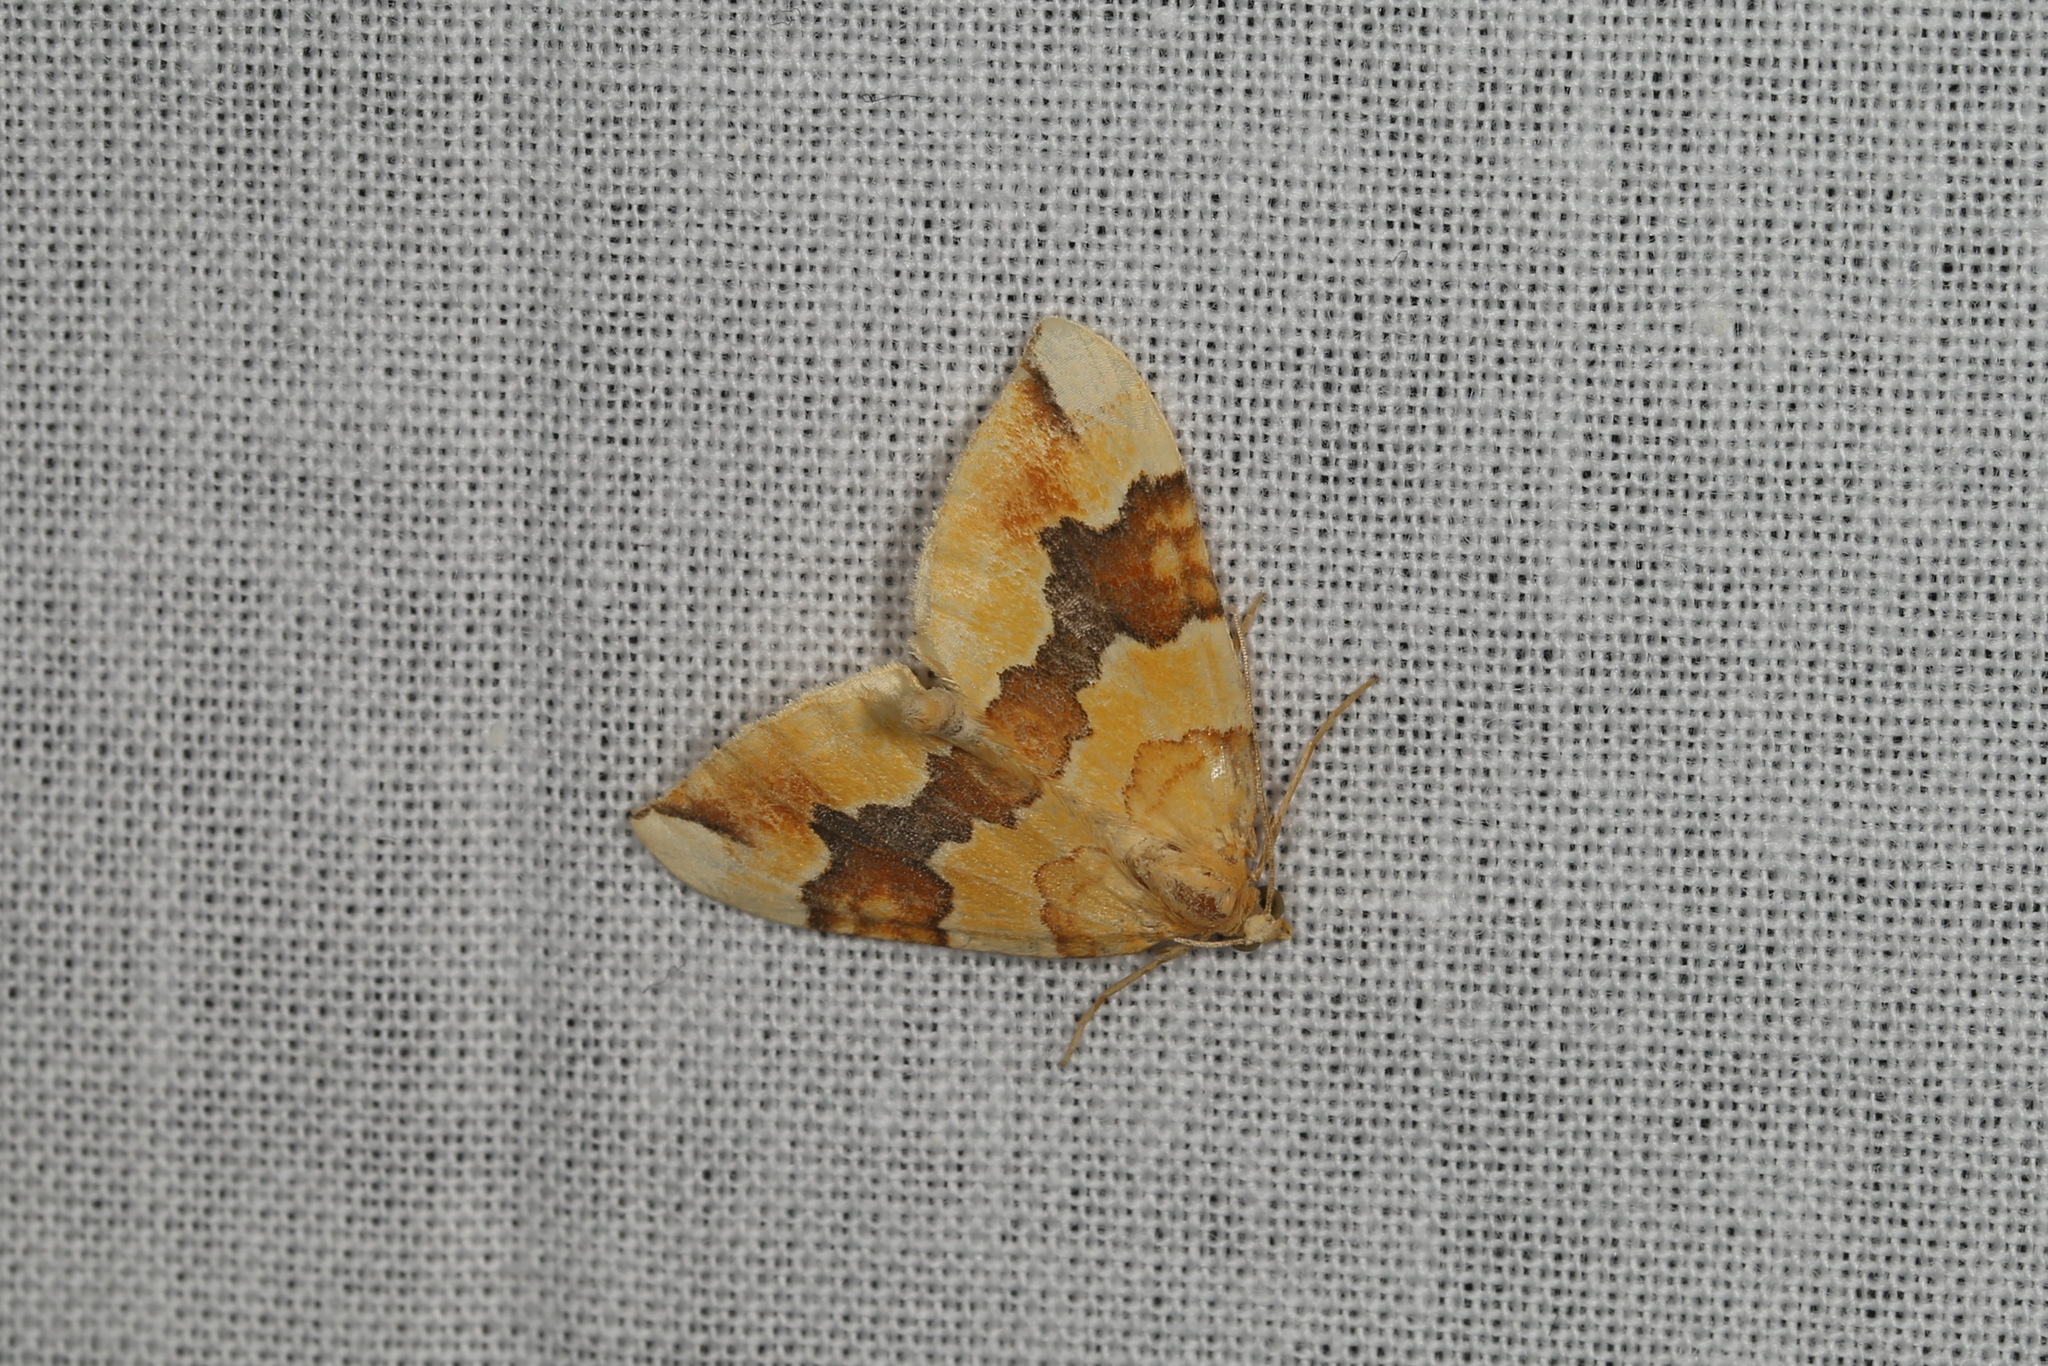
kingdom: Animalia
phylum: Arthropoda
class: Insecta
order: Lepidoptera
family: Geometridae
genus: Cidaria
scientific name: Cidaria fulvata
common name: Barred yellow
